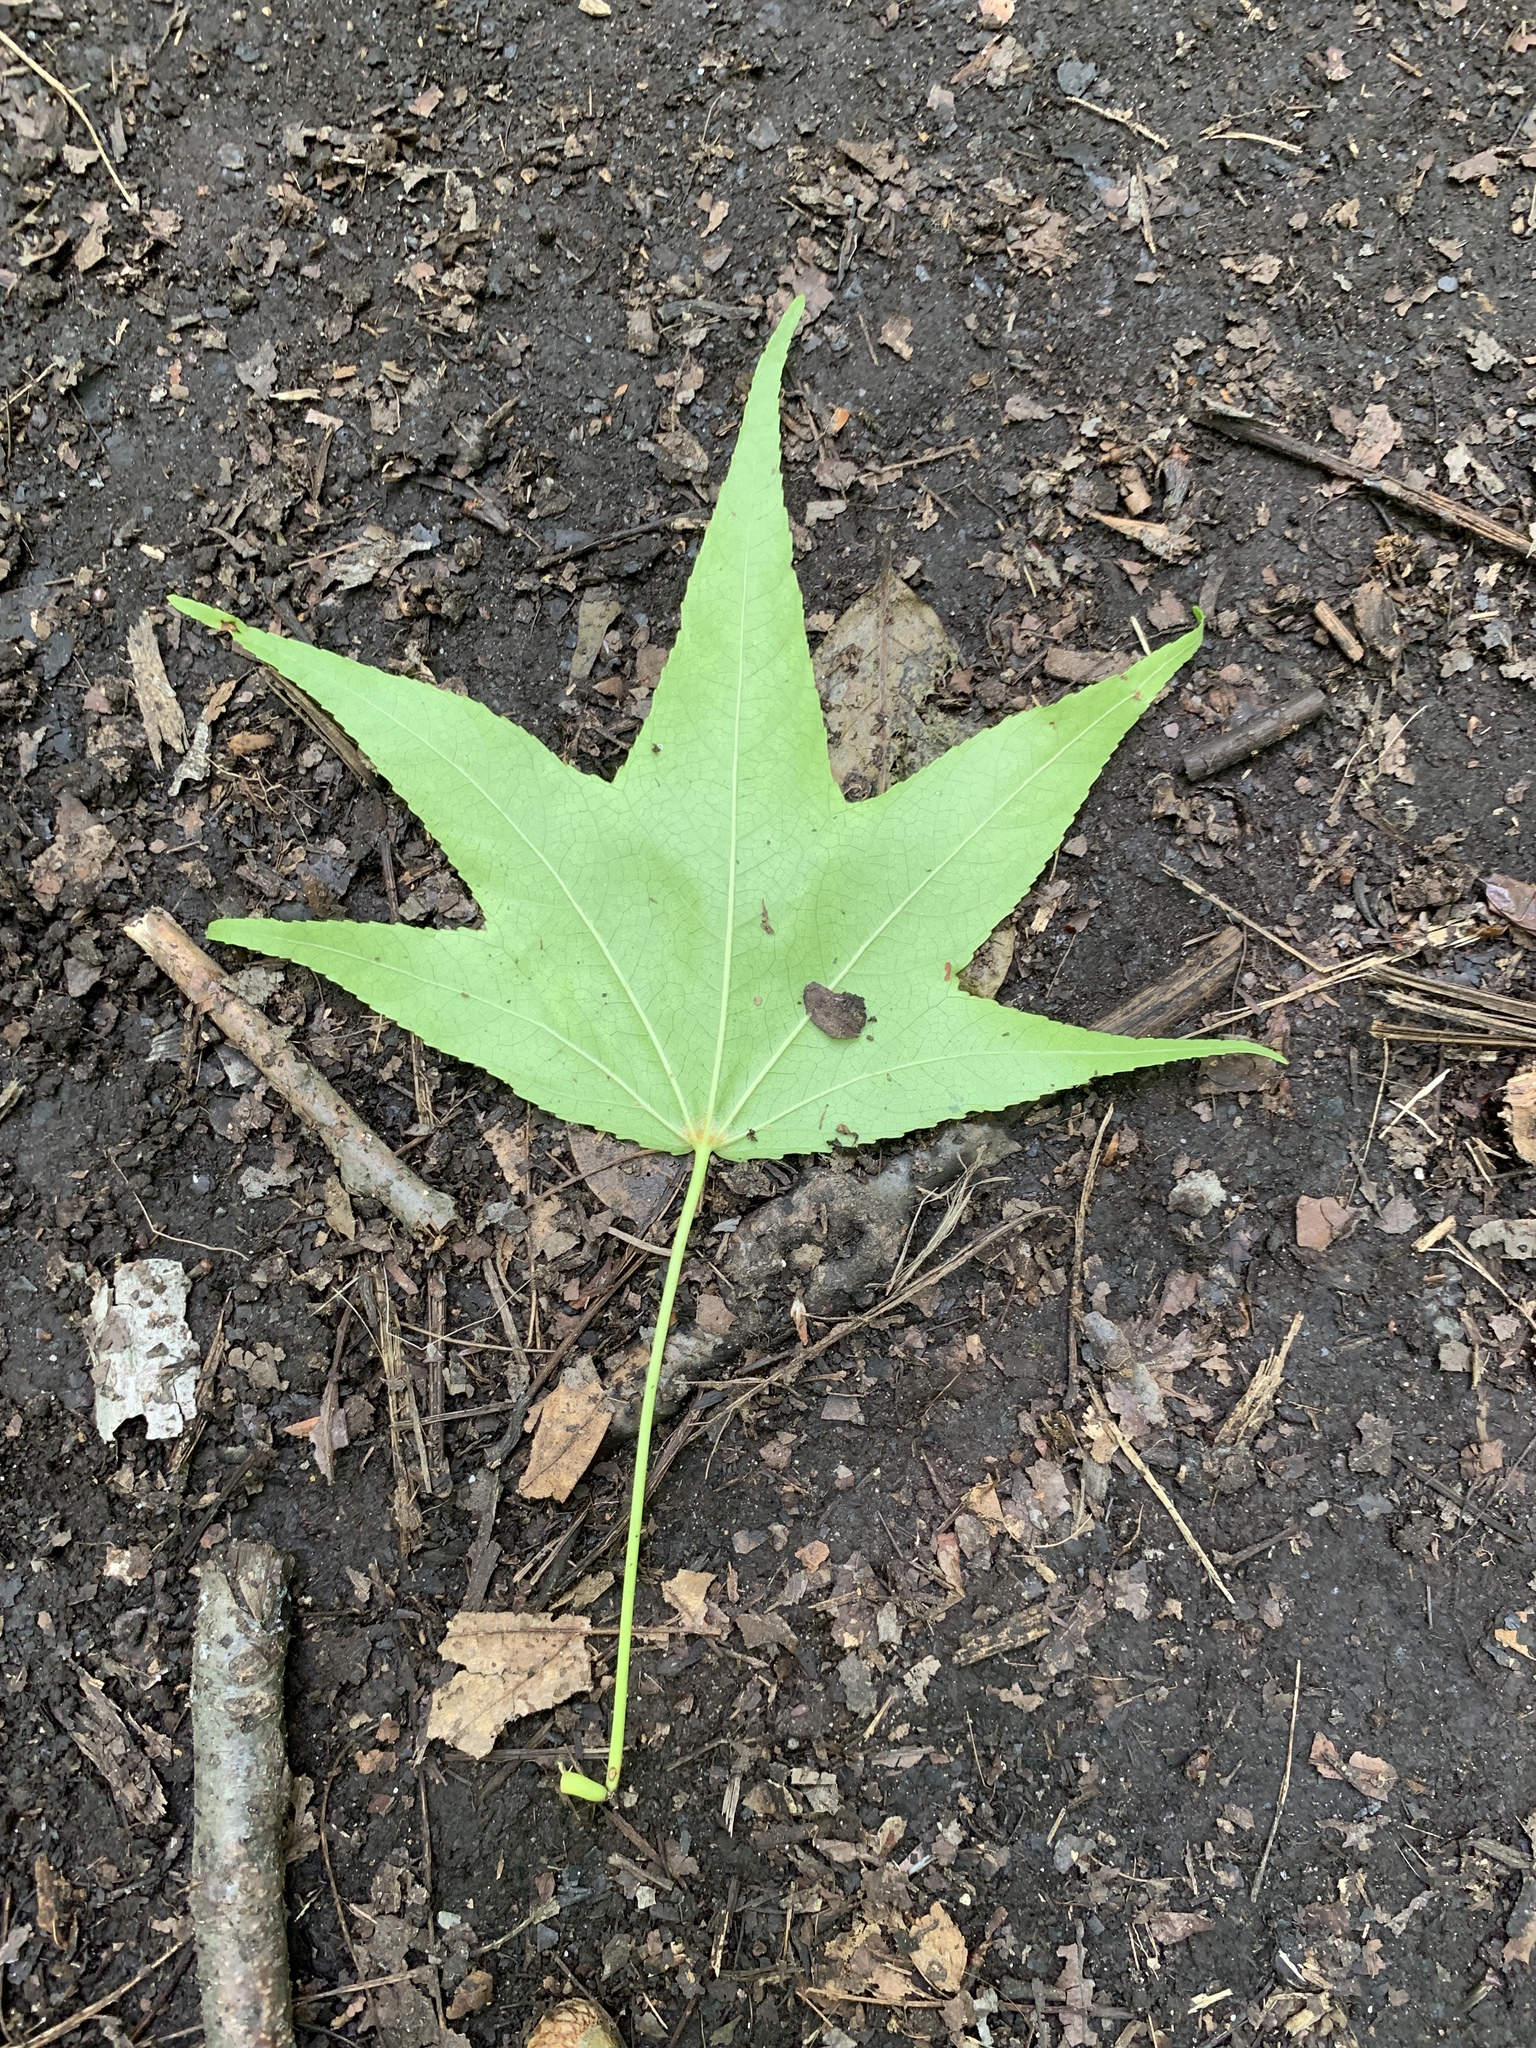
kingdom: Plantae
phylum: Tracheophyta
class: Magnoliopsida
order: Saxifragales
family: Altingiaceae
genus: Liquidambar
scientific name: Liquidambar styraciflua
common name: Sweet gum
